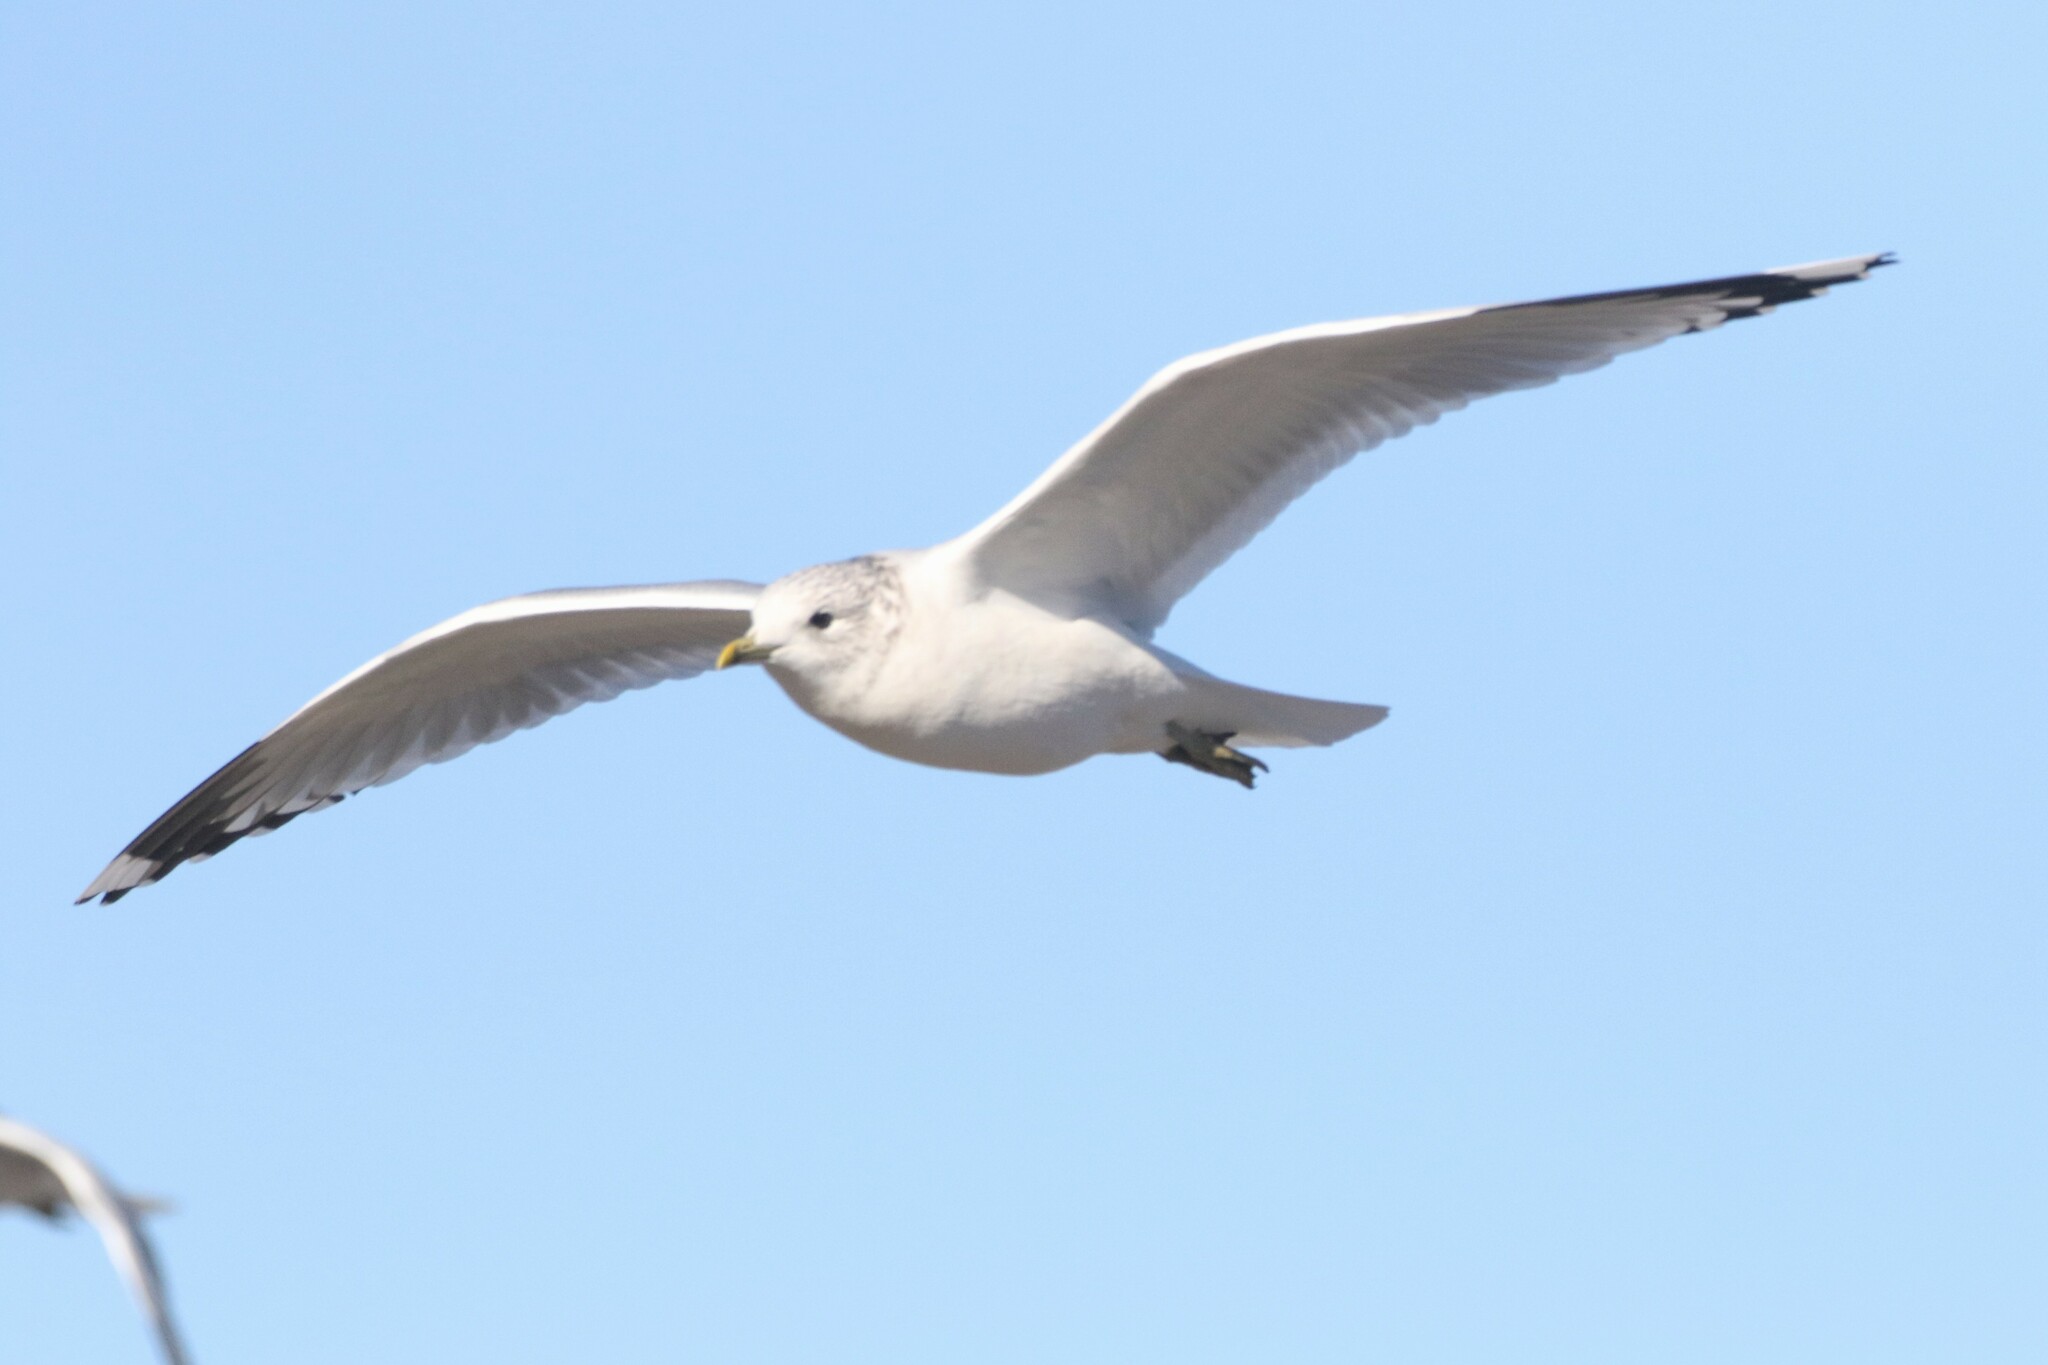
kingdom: Animalia
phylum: Chordata
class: Aves
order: Charadriiformes
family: Laridae
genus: Larus
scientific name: Larus canus
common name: Mew gull
